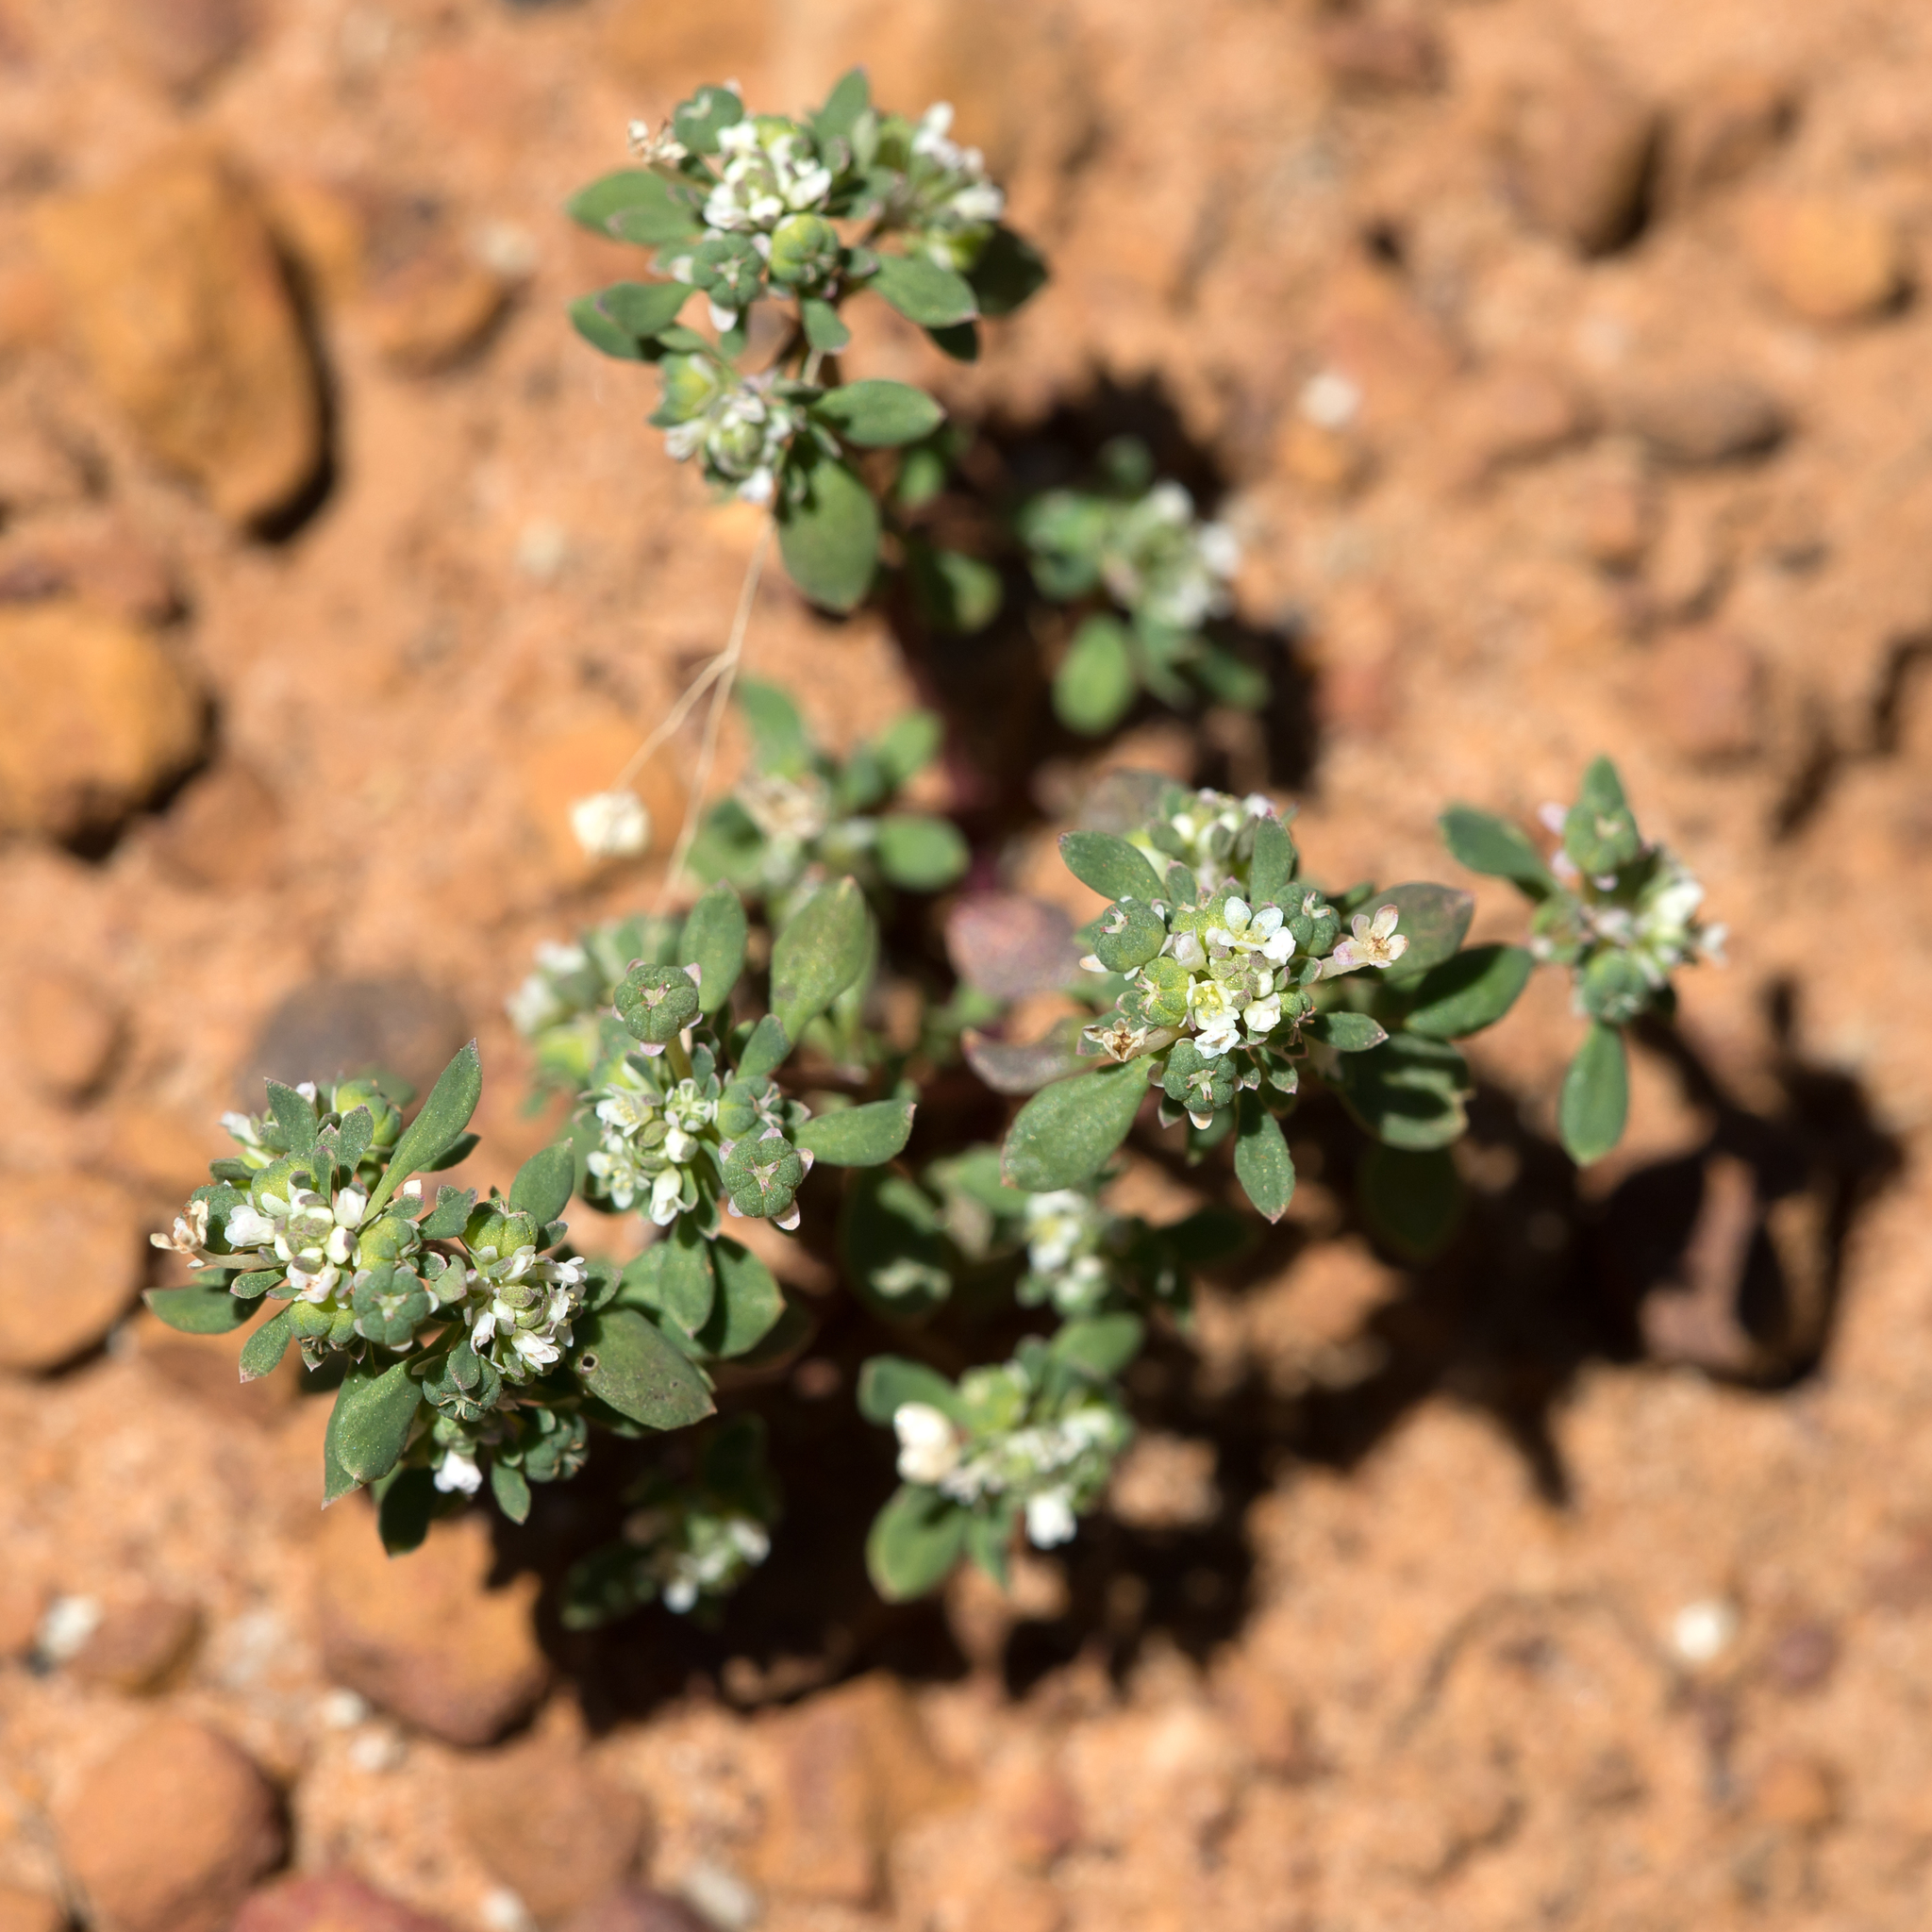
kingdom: Plantae
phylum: Tracheophyta
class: Magnoliopsida
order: Malpighiales
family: Phyllanthaceae
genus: Poranthera
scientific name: Poranthera microphylla
